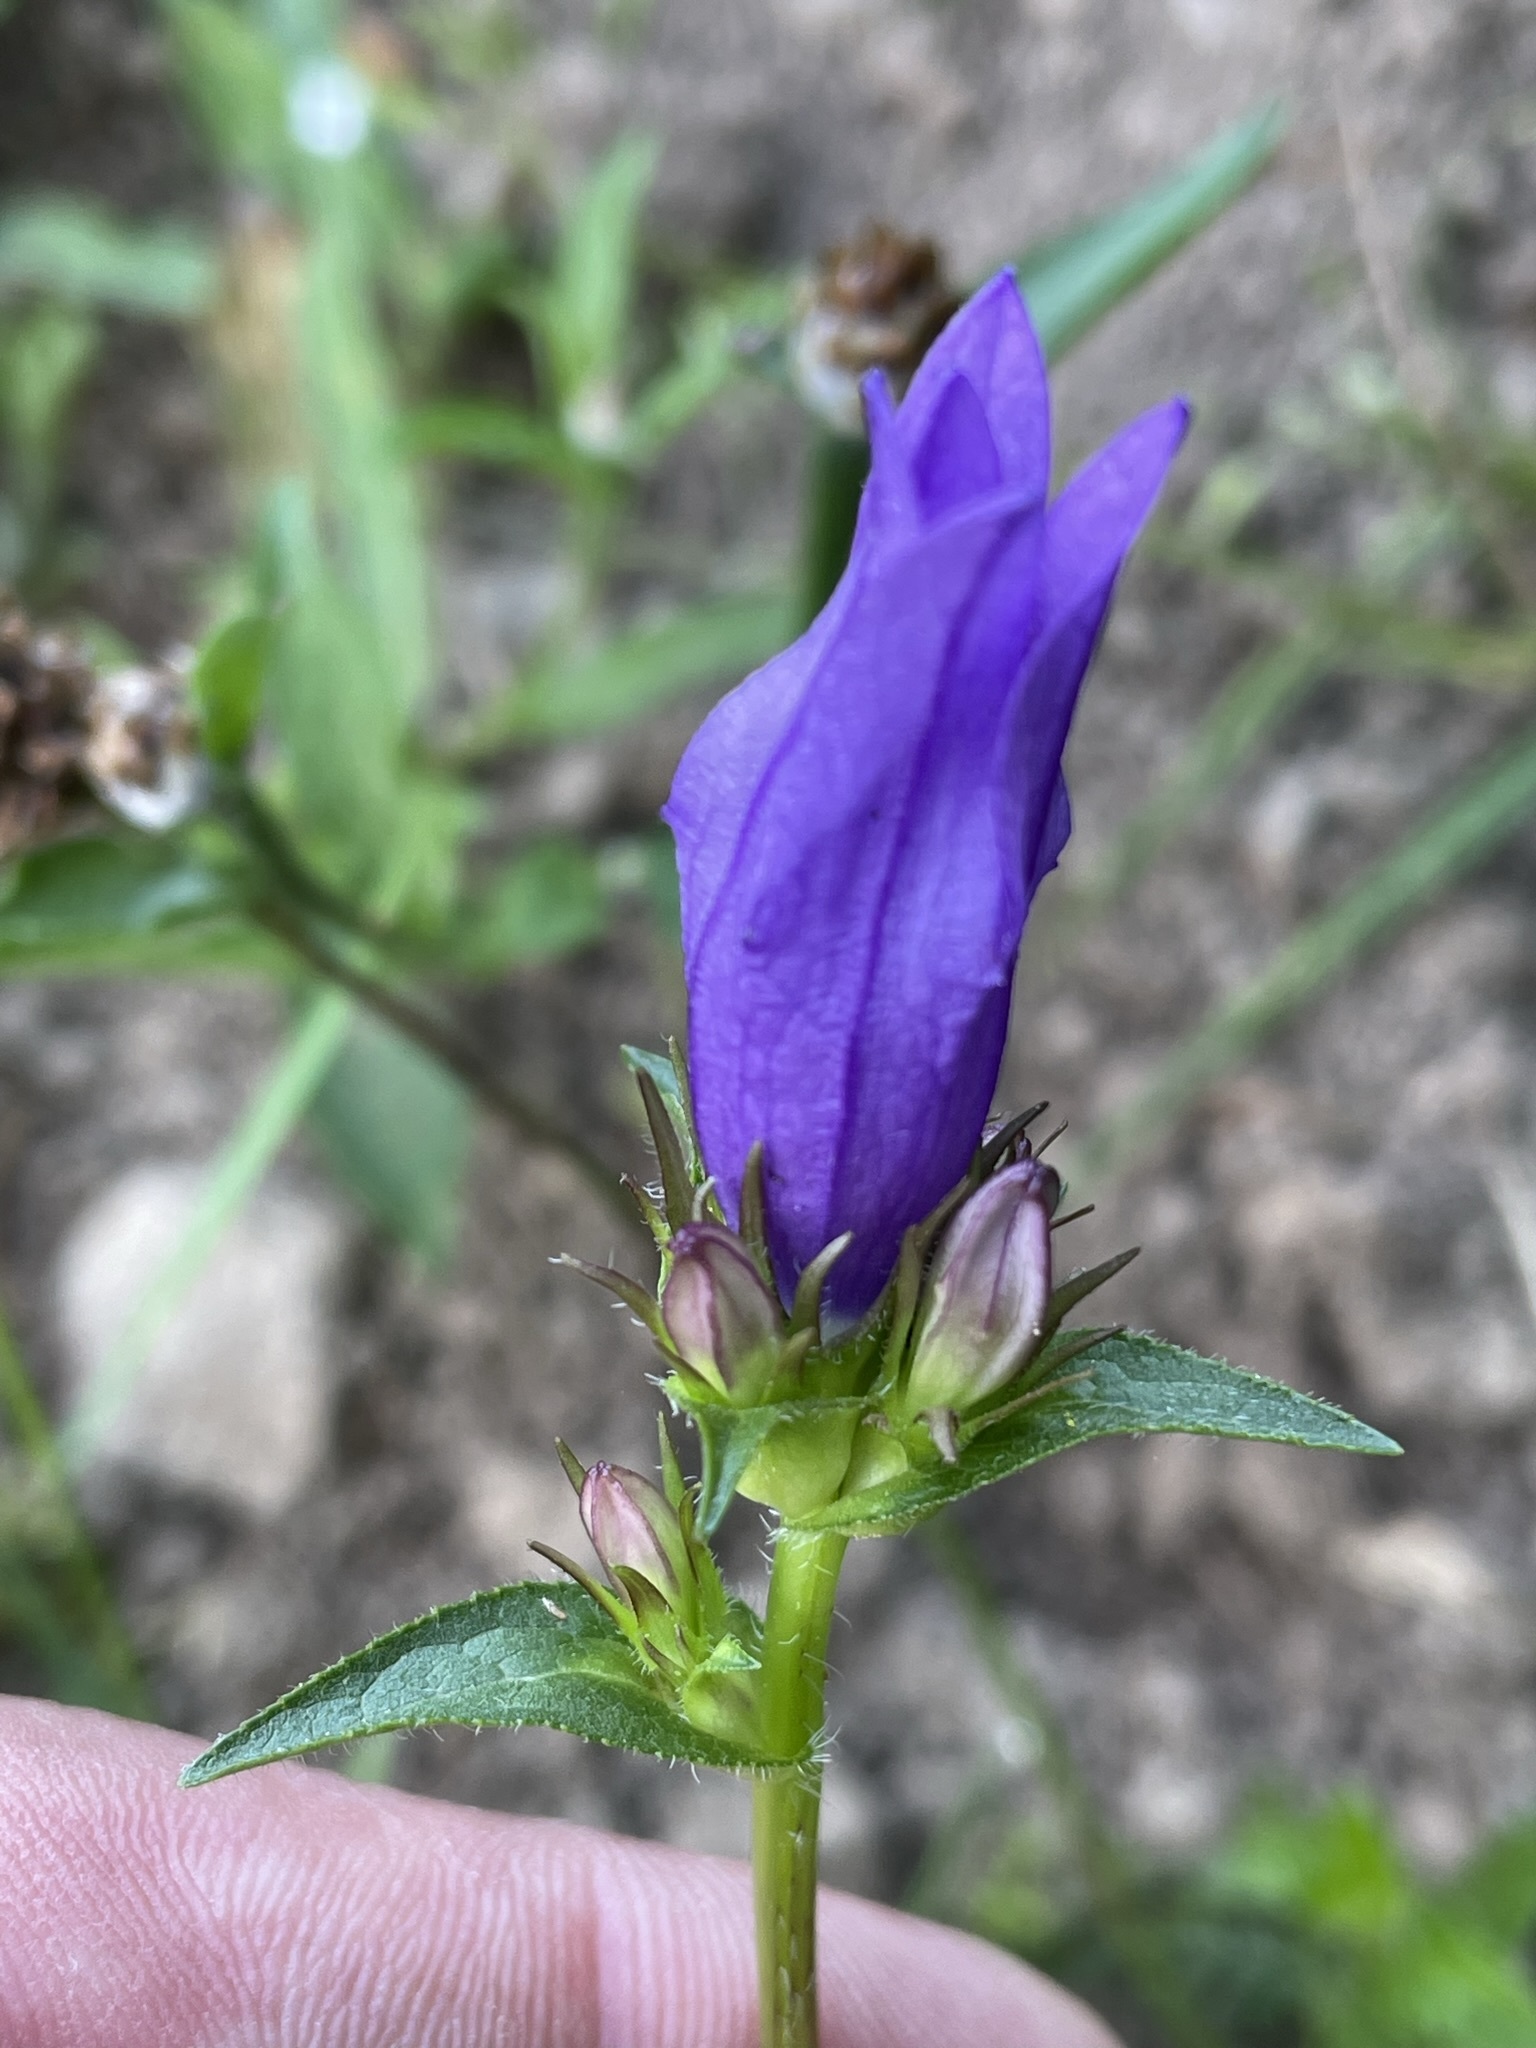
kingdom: Plantae
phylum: Tracheophyta
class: Magnoliopsida
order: Asterales
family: Campanulaceae
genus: Campanula
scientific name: Campanula glomerata
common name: Clustered bellflower
